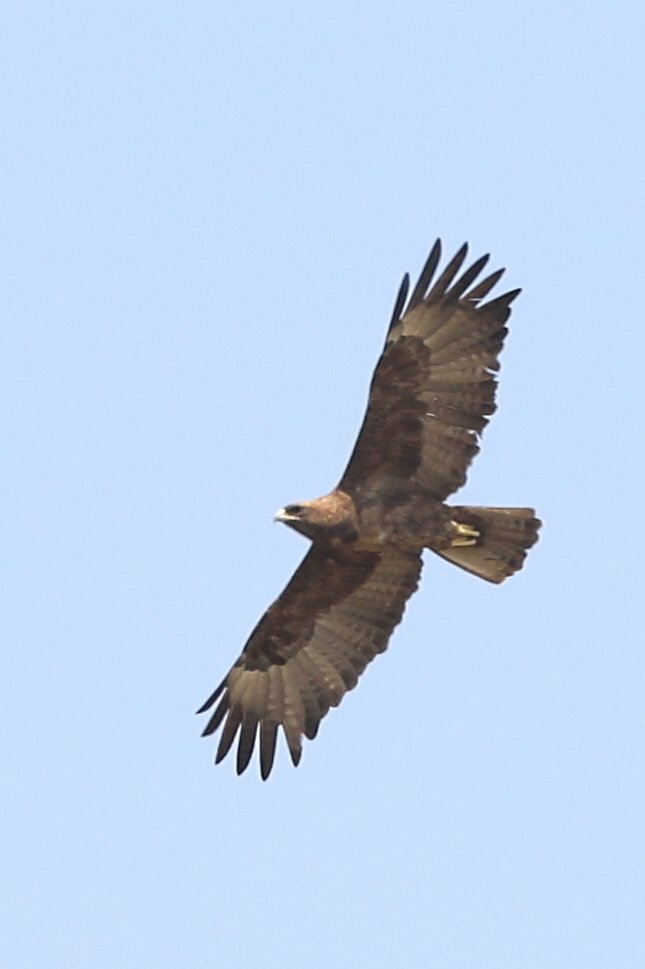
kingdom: Animalia
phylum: Chordata
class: Aves
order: Accipitriformes
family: Accipitridae
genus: Hieraaetus
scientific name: Hieraaetus wahlbergi
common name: Wahlberg's eagle
